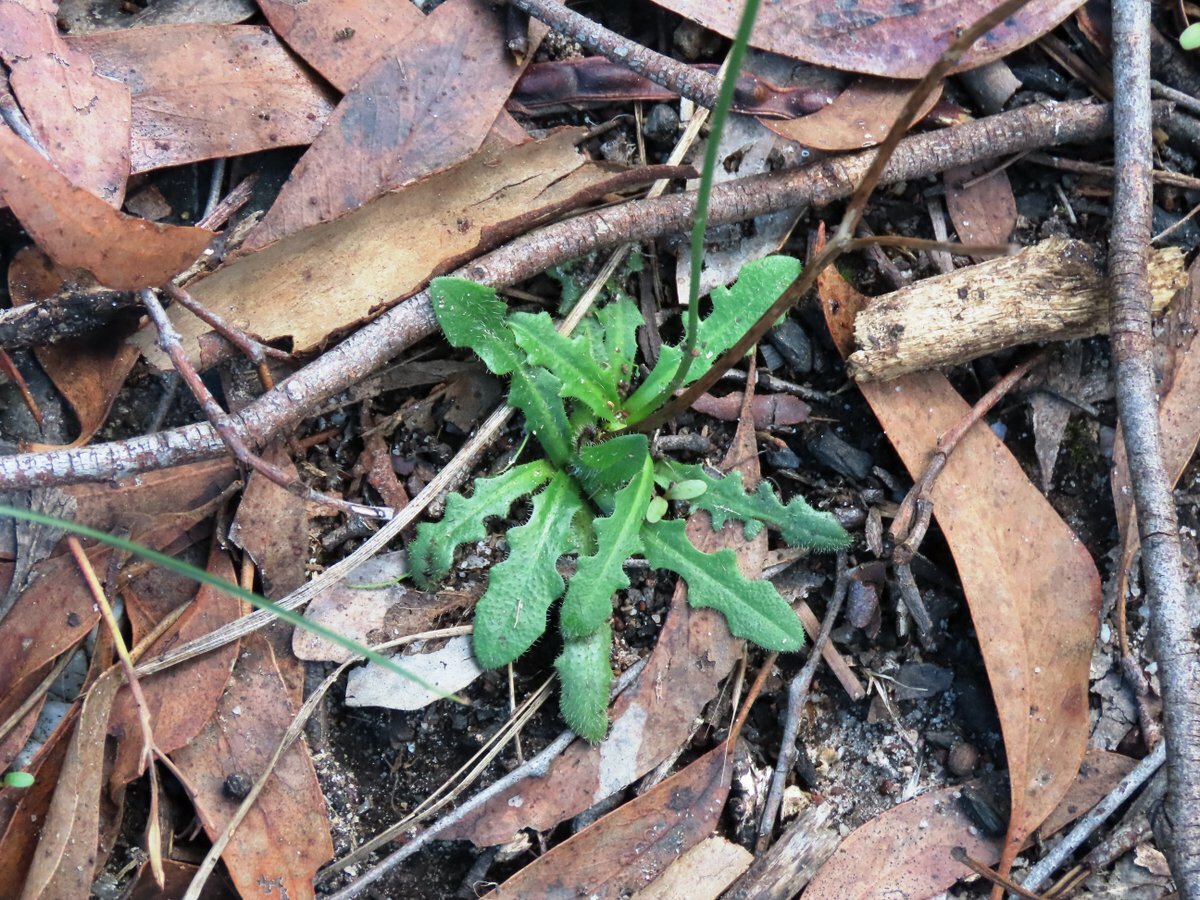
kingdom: Plantae
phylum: Tracheophyta
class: Magnoliopsida
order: Asterales
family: Asteraceae
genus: Hypochaeris
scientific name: Hypochaeris radicata
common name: Flatweed
